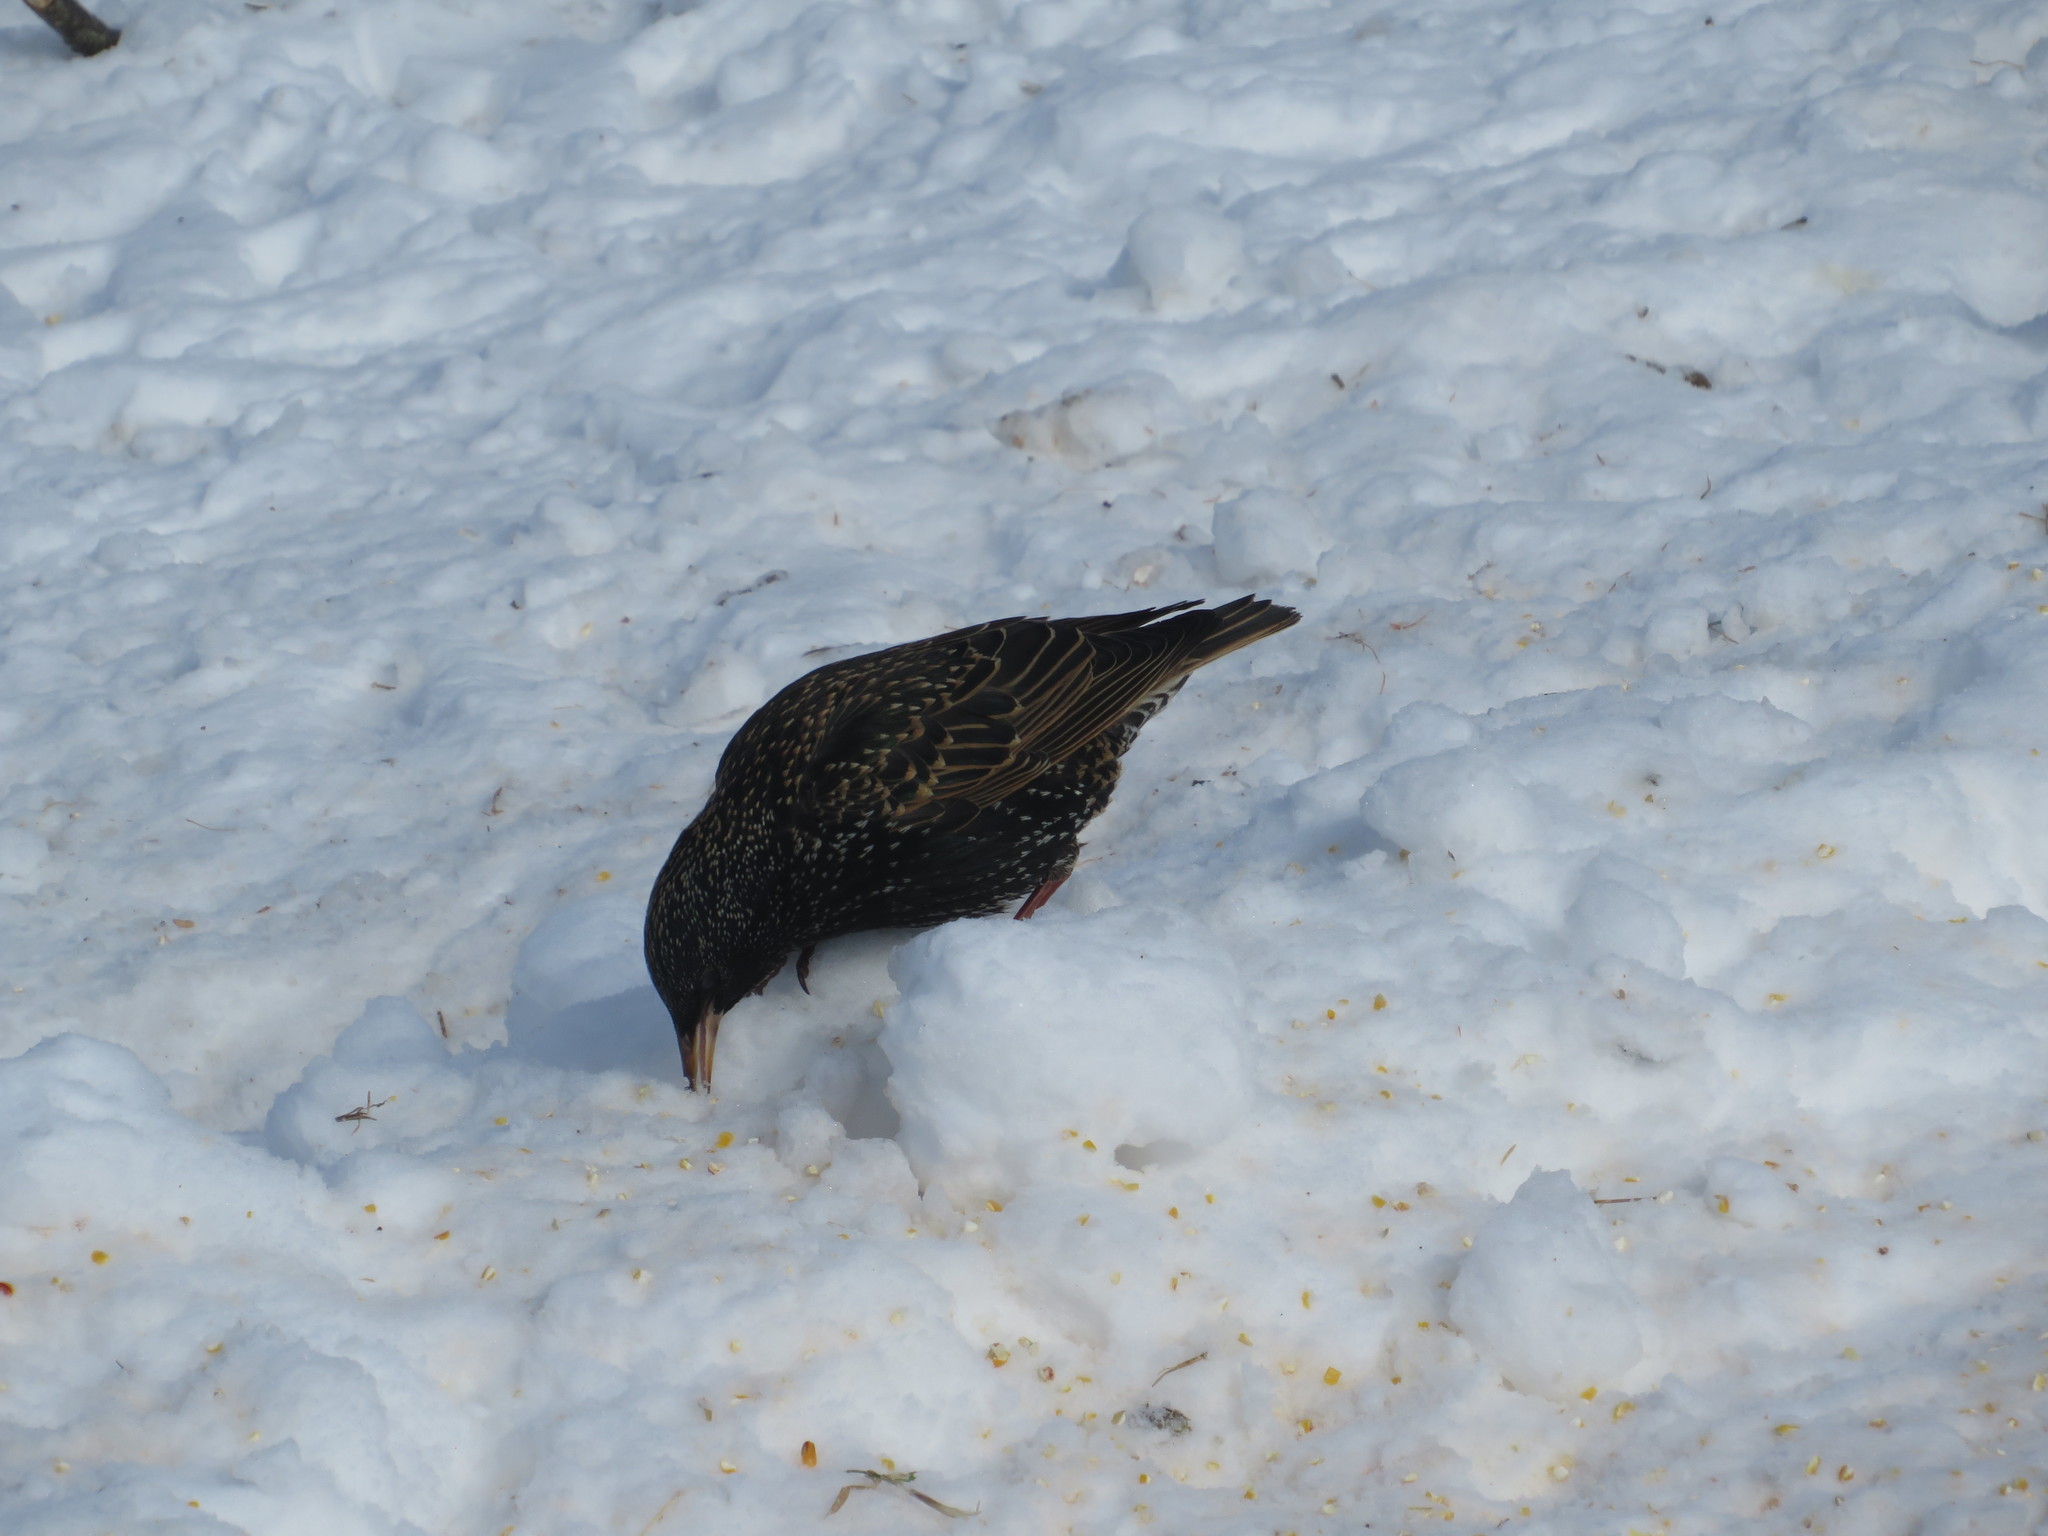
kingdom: Animalia
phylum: Chordata
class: Aves
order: Passeriformes
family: Sturnidae
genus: Sturnus
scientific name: Sturnus vulgaris
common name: Common starling
